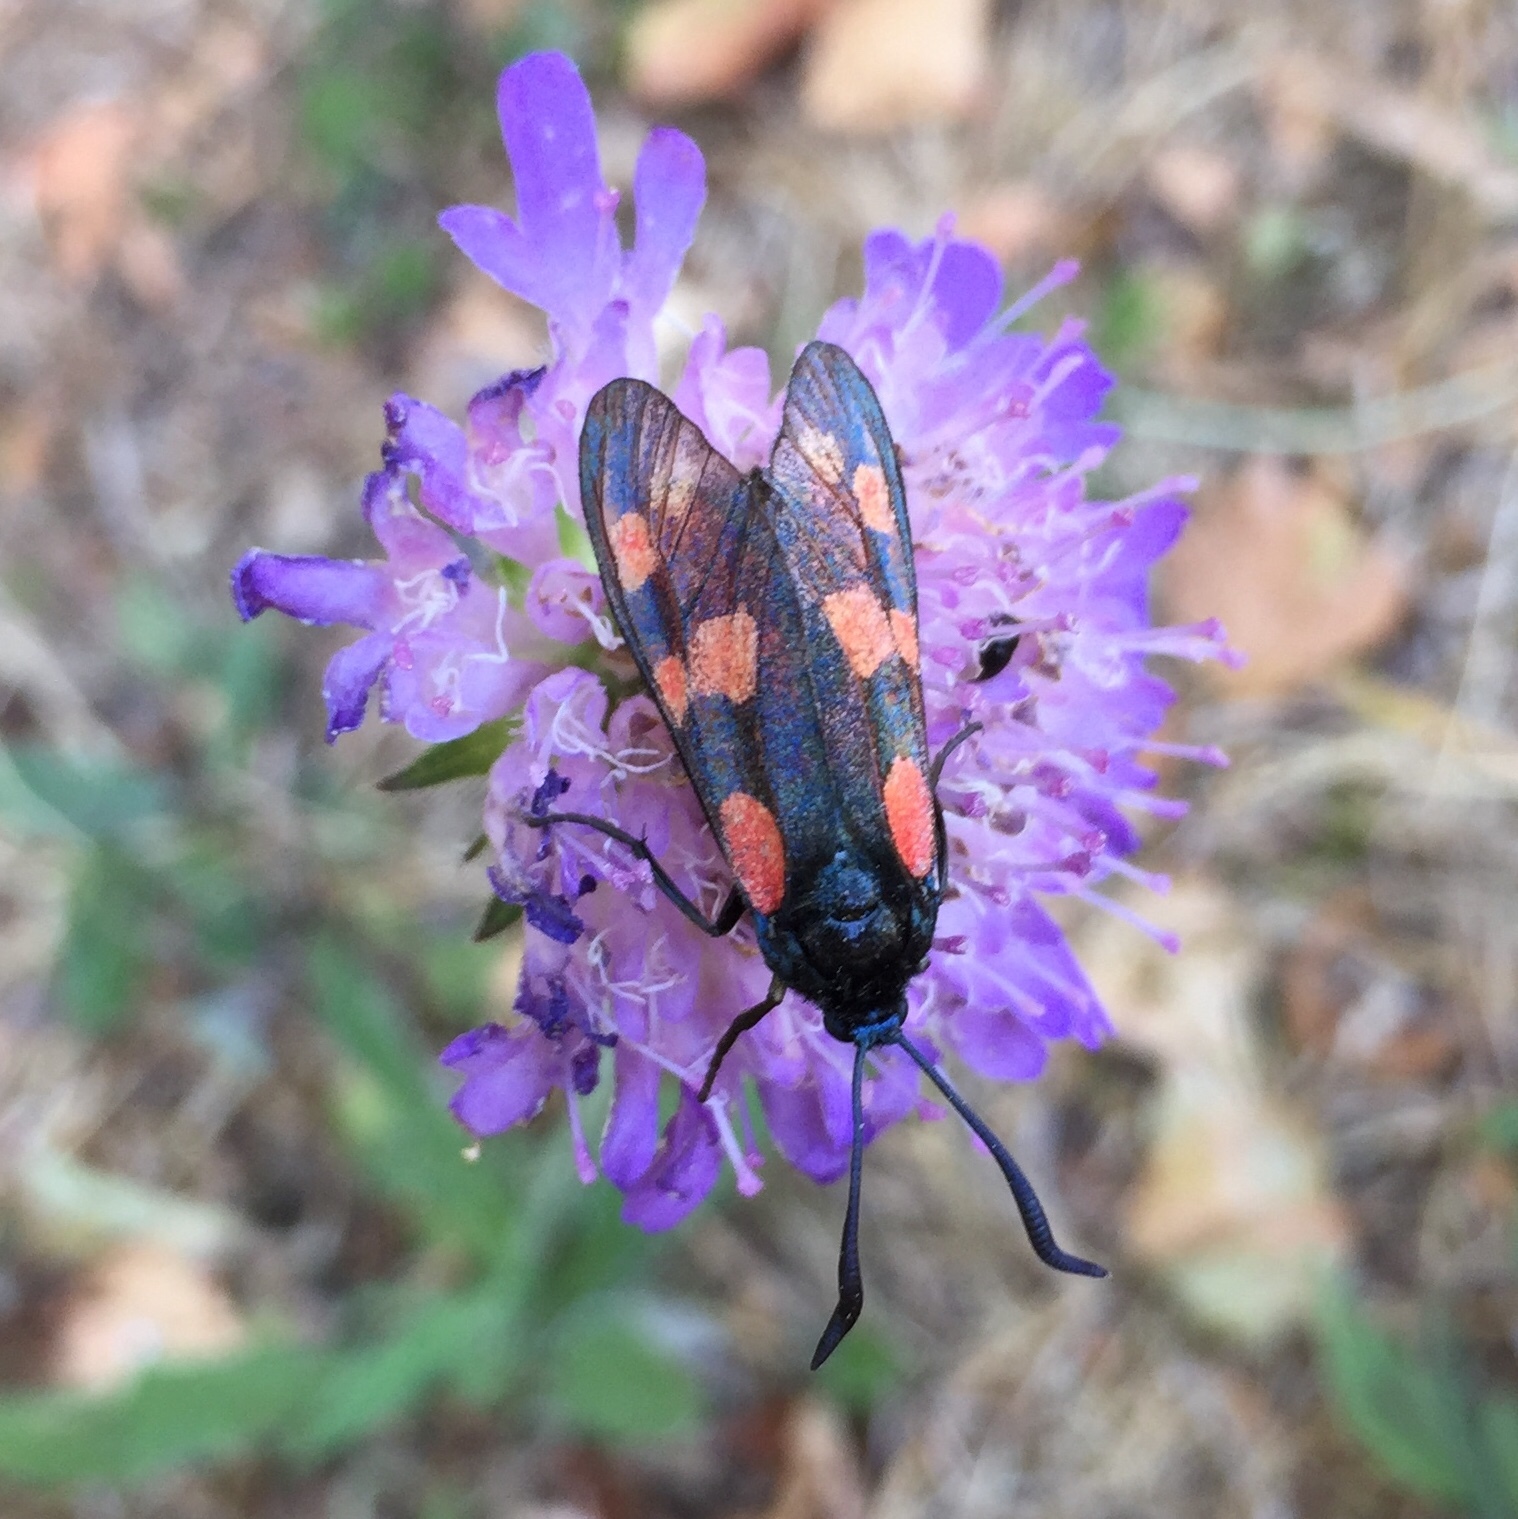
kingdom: Animalia
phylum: Arthropoda
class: Insecta
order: Lepidoptera
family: Zygaenidae
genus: Zygaena
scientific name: Zygaena filipendulae
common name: Six-spot burnet
